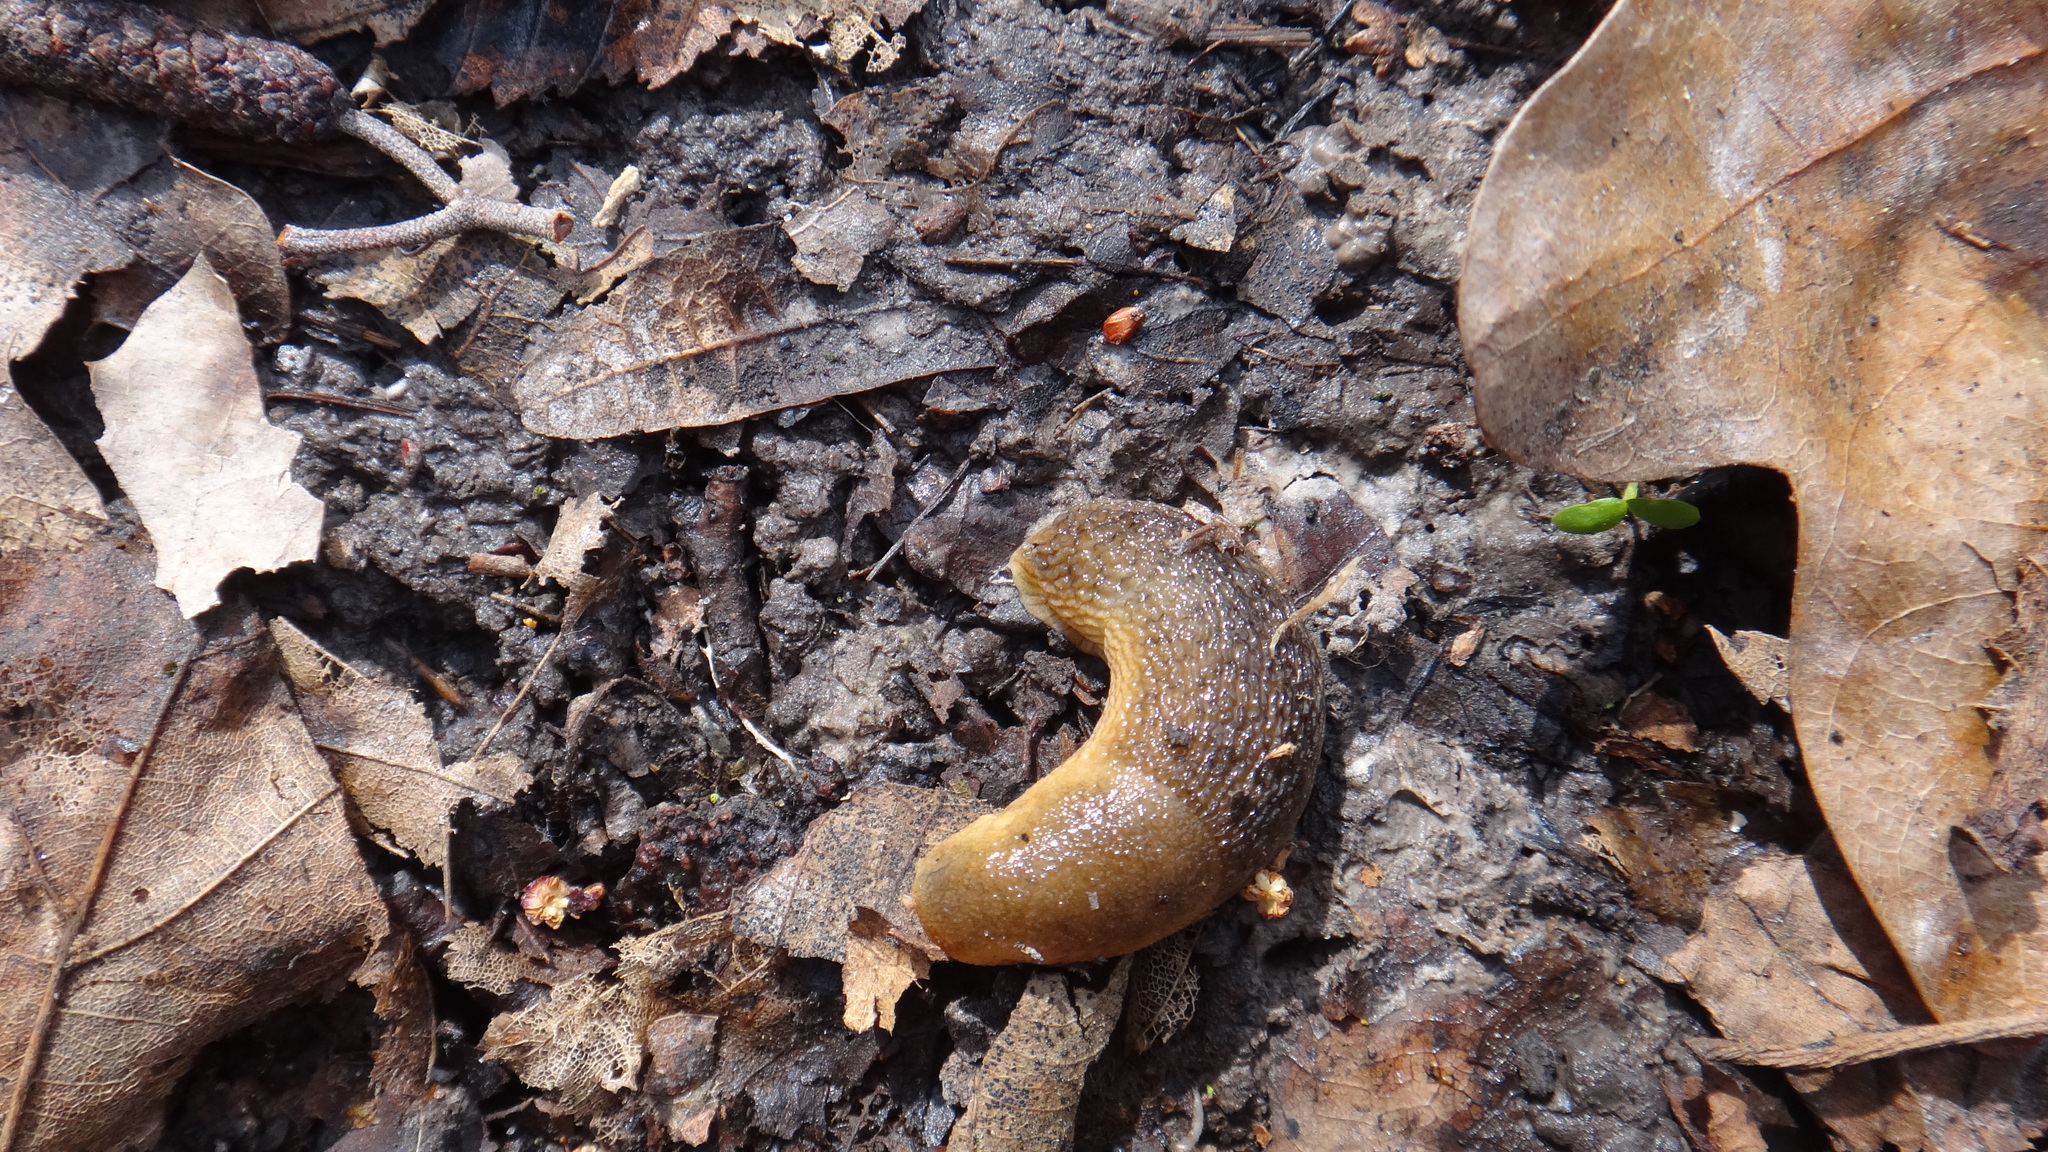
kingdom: Animalia
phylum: Mollusca
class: Gastropoda
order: Stylommatophora
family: Arionidae
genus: Arion
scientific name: Arion fuscus
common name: Northern dusky slug
